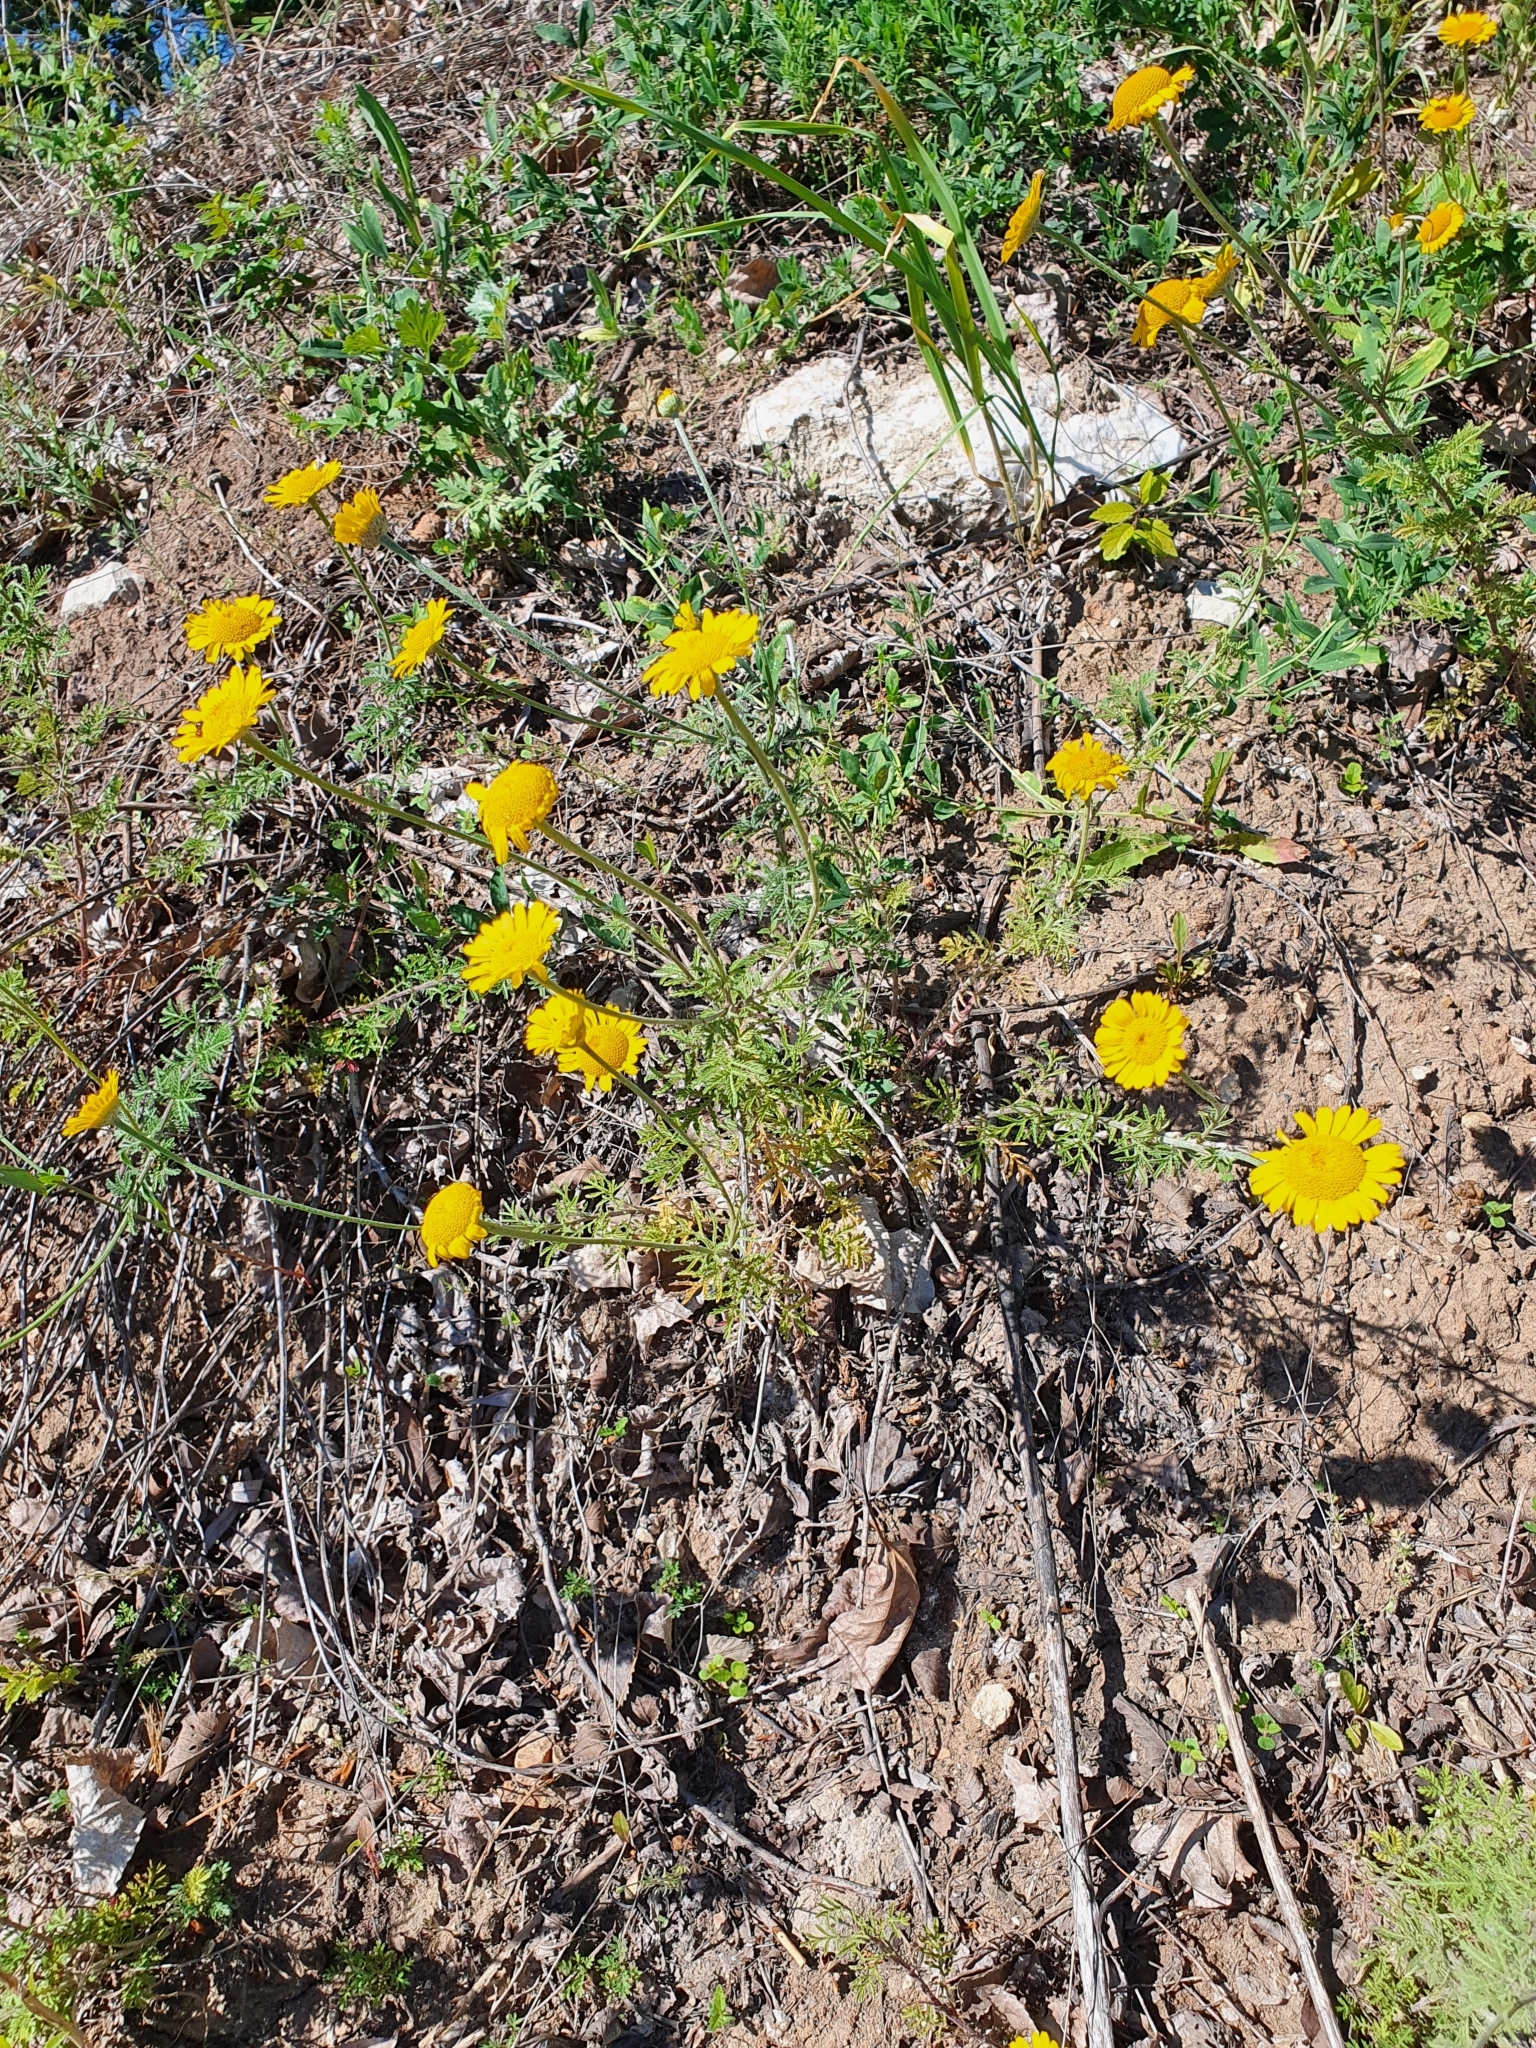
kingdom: Plantae
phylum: Tracheophyta
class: Magnoliopsida
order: Asterales
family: Asteraceae
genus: Cota
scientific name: Cota tinctoria
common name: Golden chamomile
